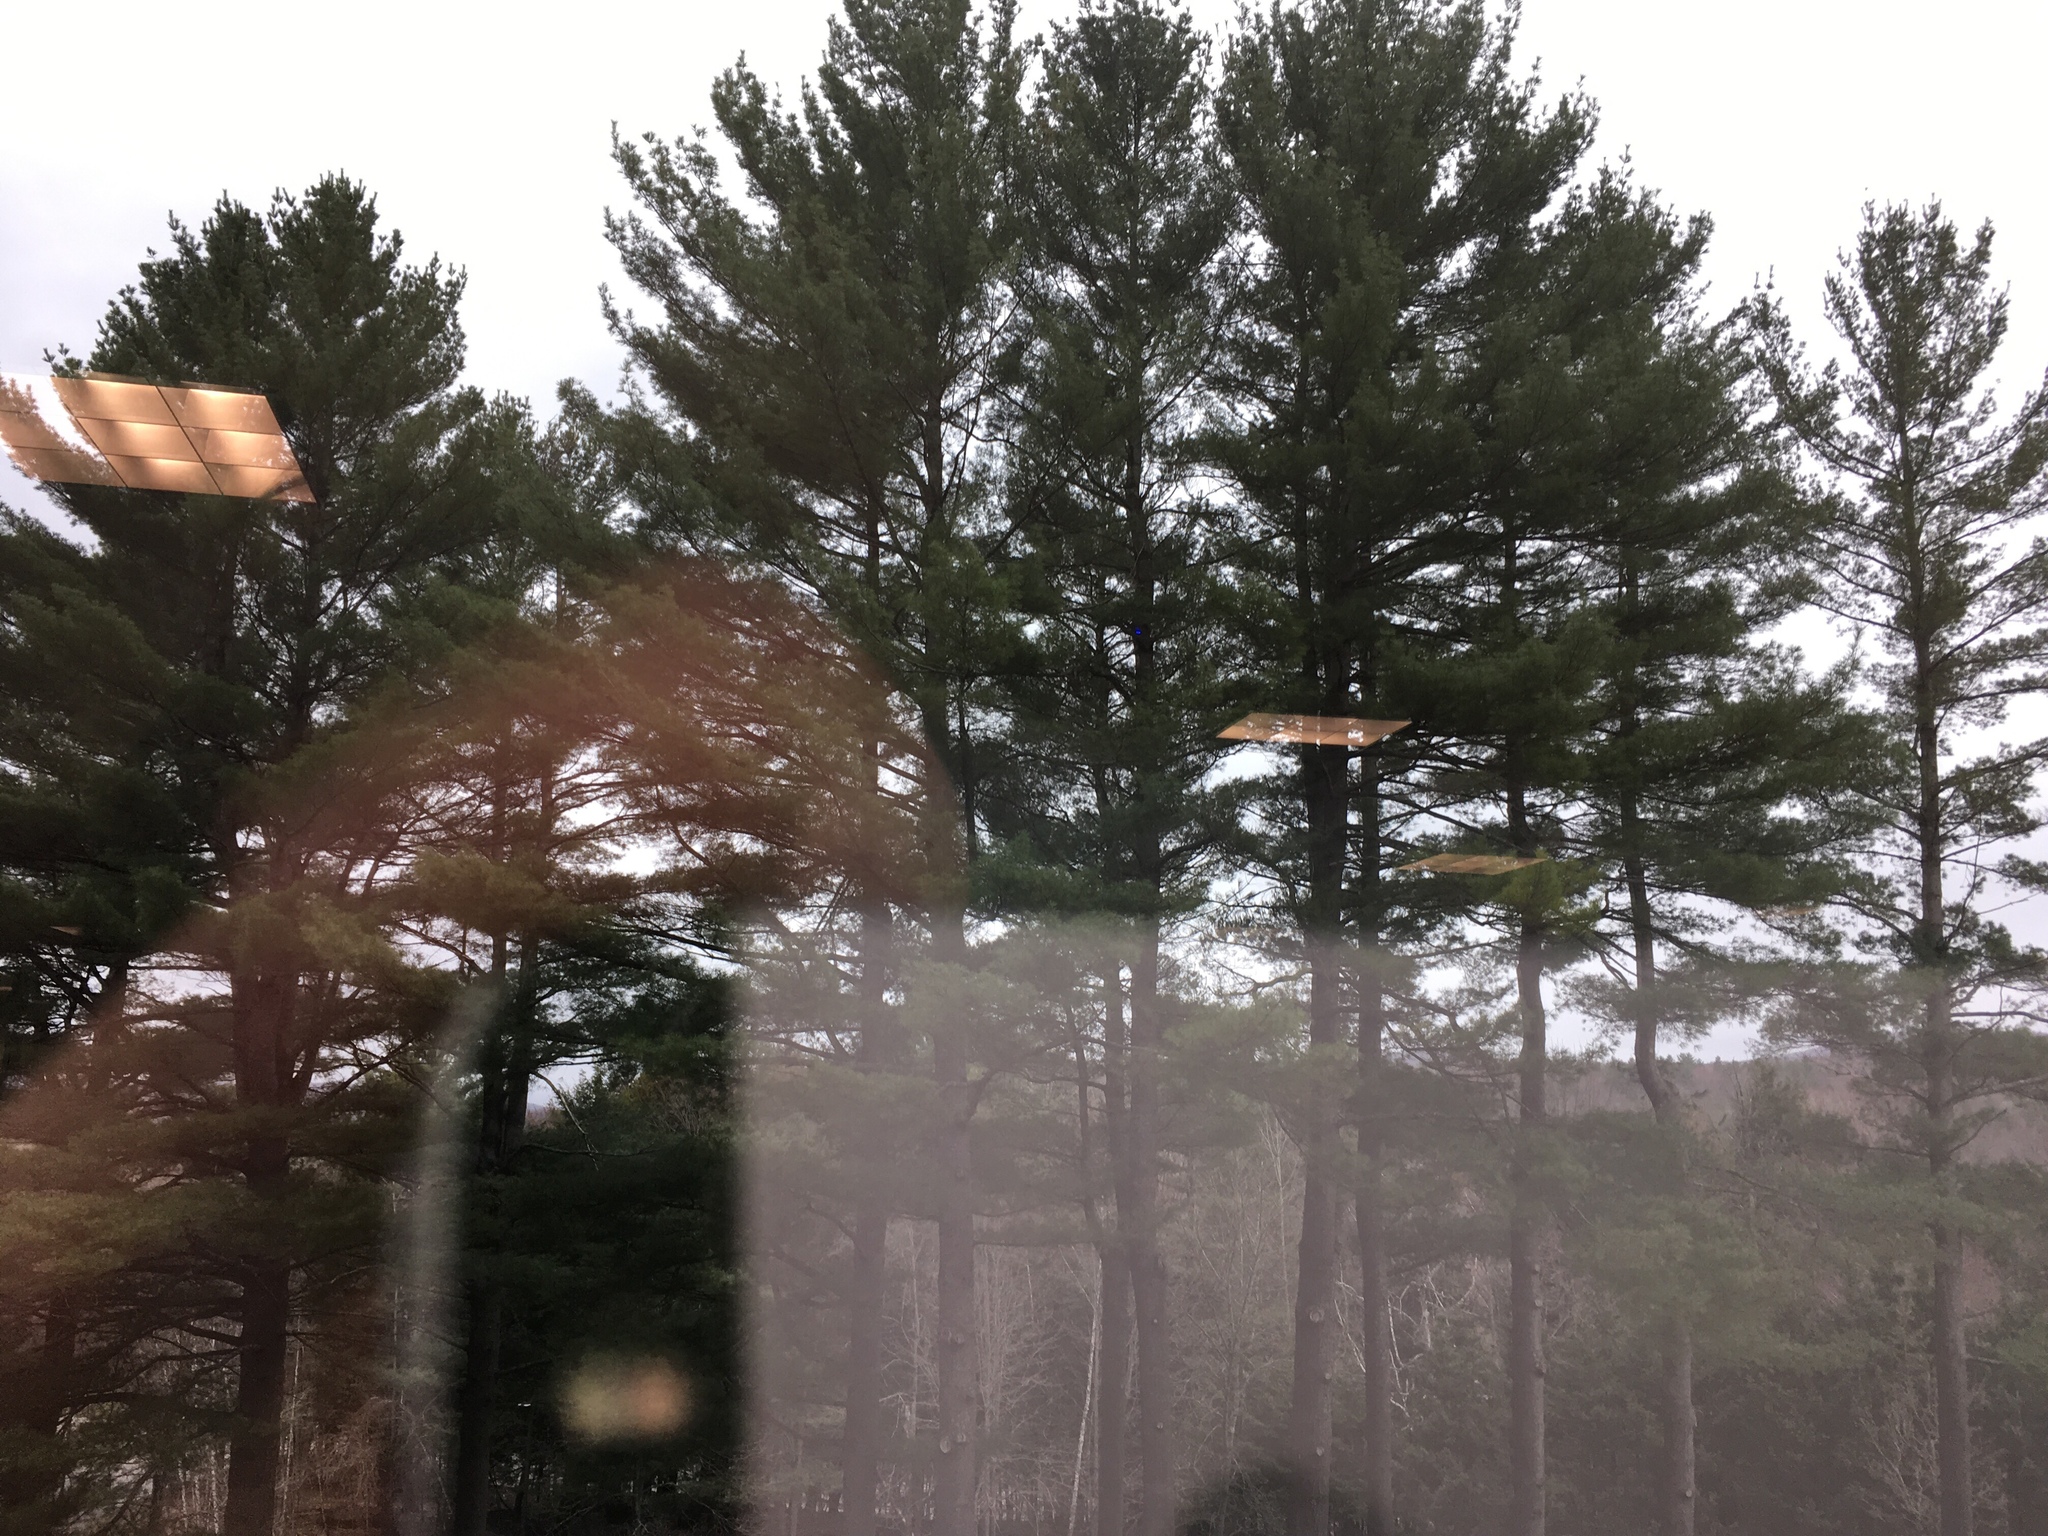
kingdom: Plantae
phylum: Tracheophyta
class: Pinopsida
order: Pinales
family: Pinaceae
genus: Pinus
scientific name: Pinus strobus
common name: Weymouth pine
